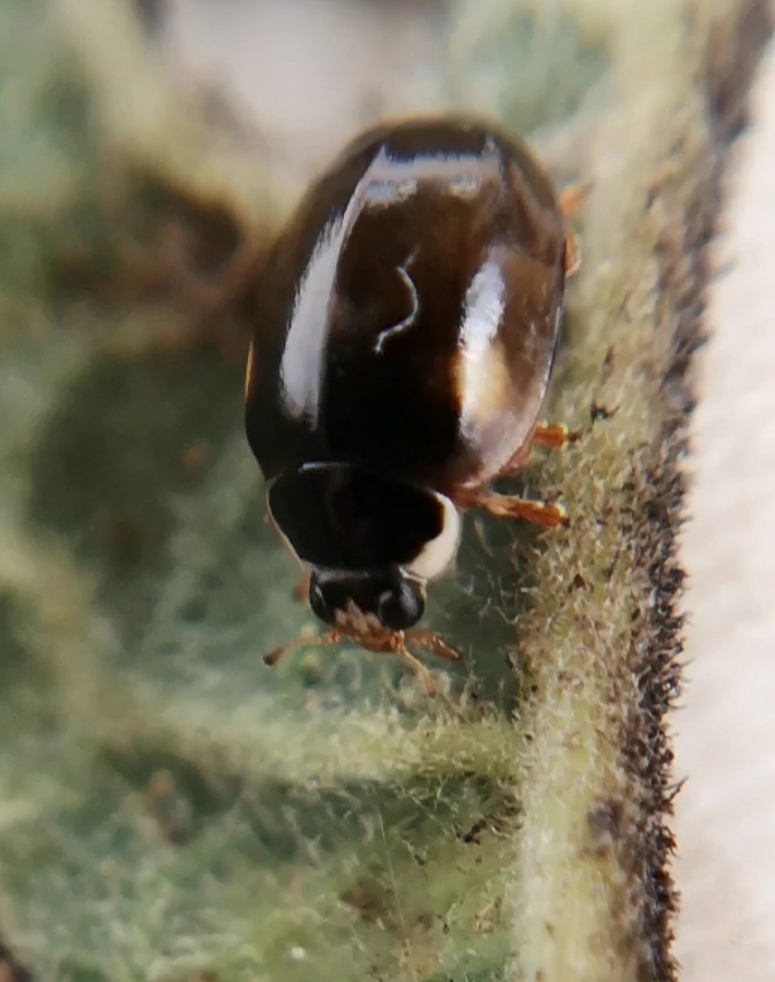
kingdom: Animalia
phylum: Arthropoda
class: Insecta
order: Coleoptera
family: Coccinellidae
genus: Adalia
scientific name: Adalia decempunctata
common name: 10-spot ladybird
